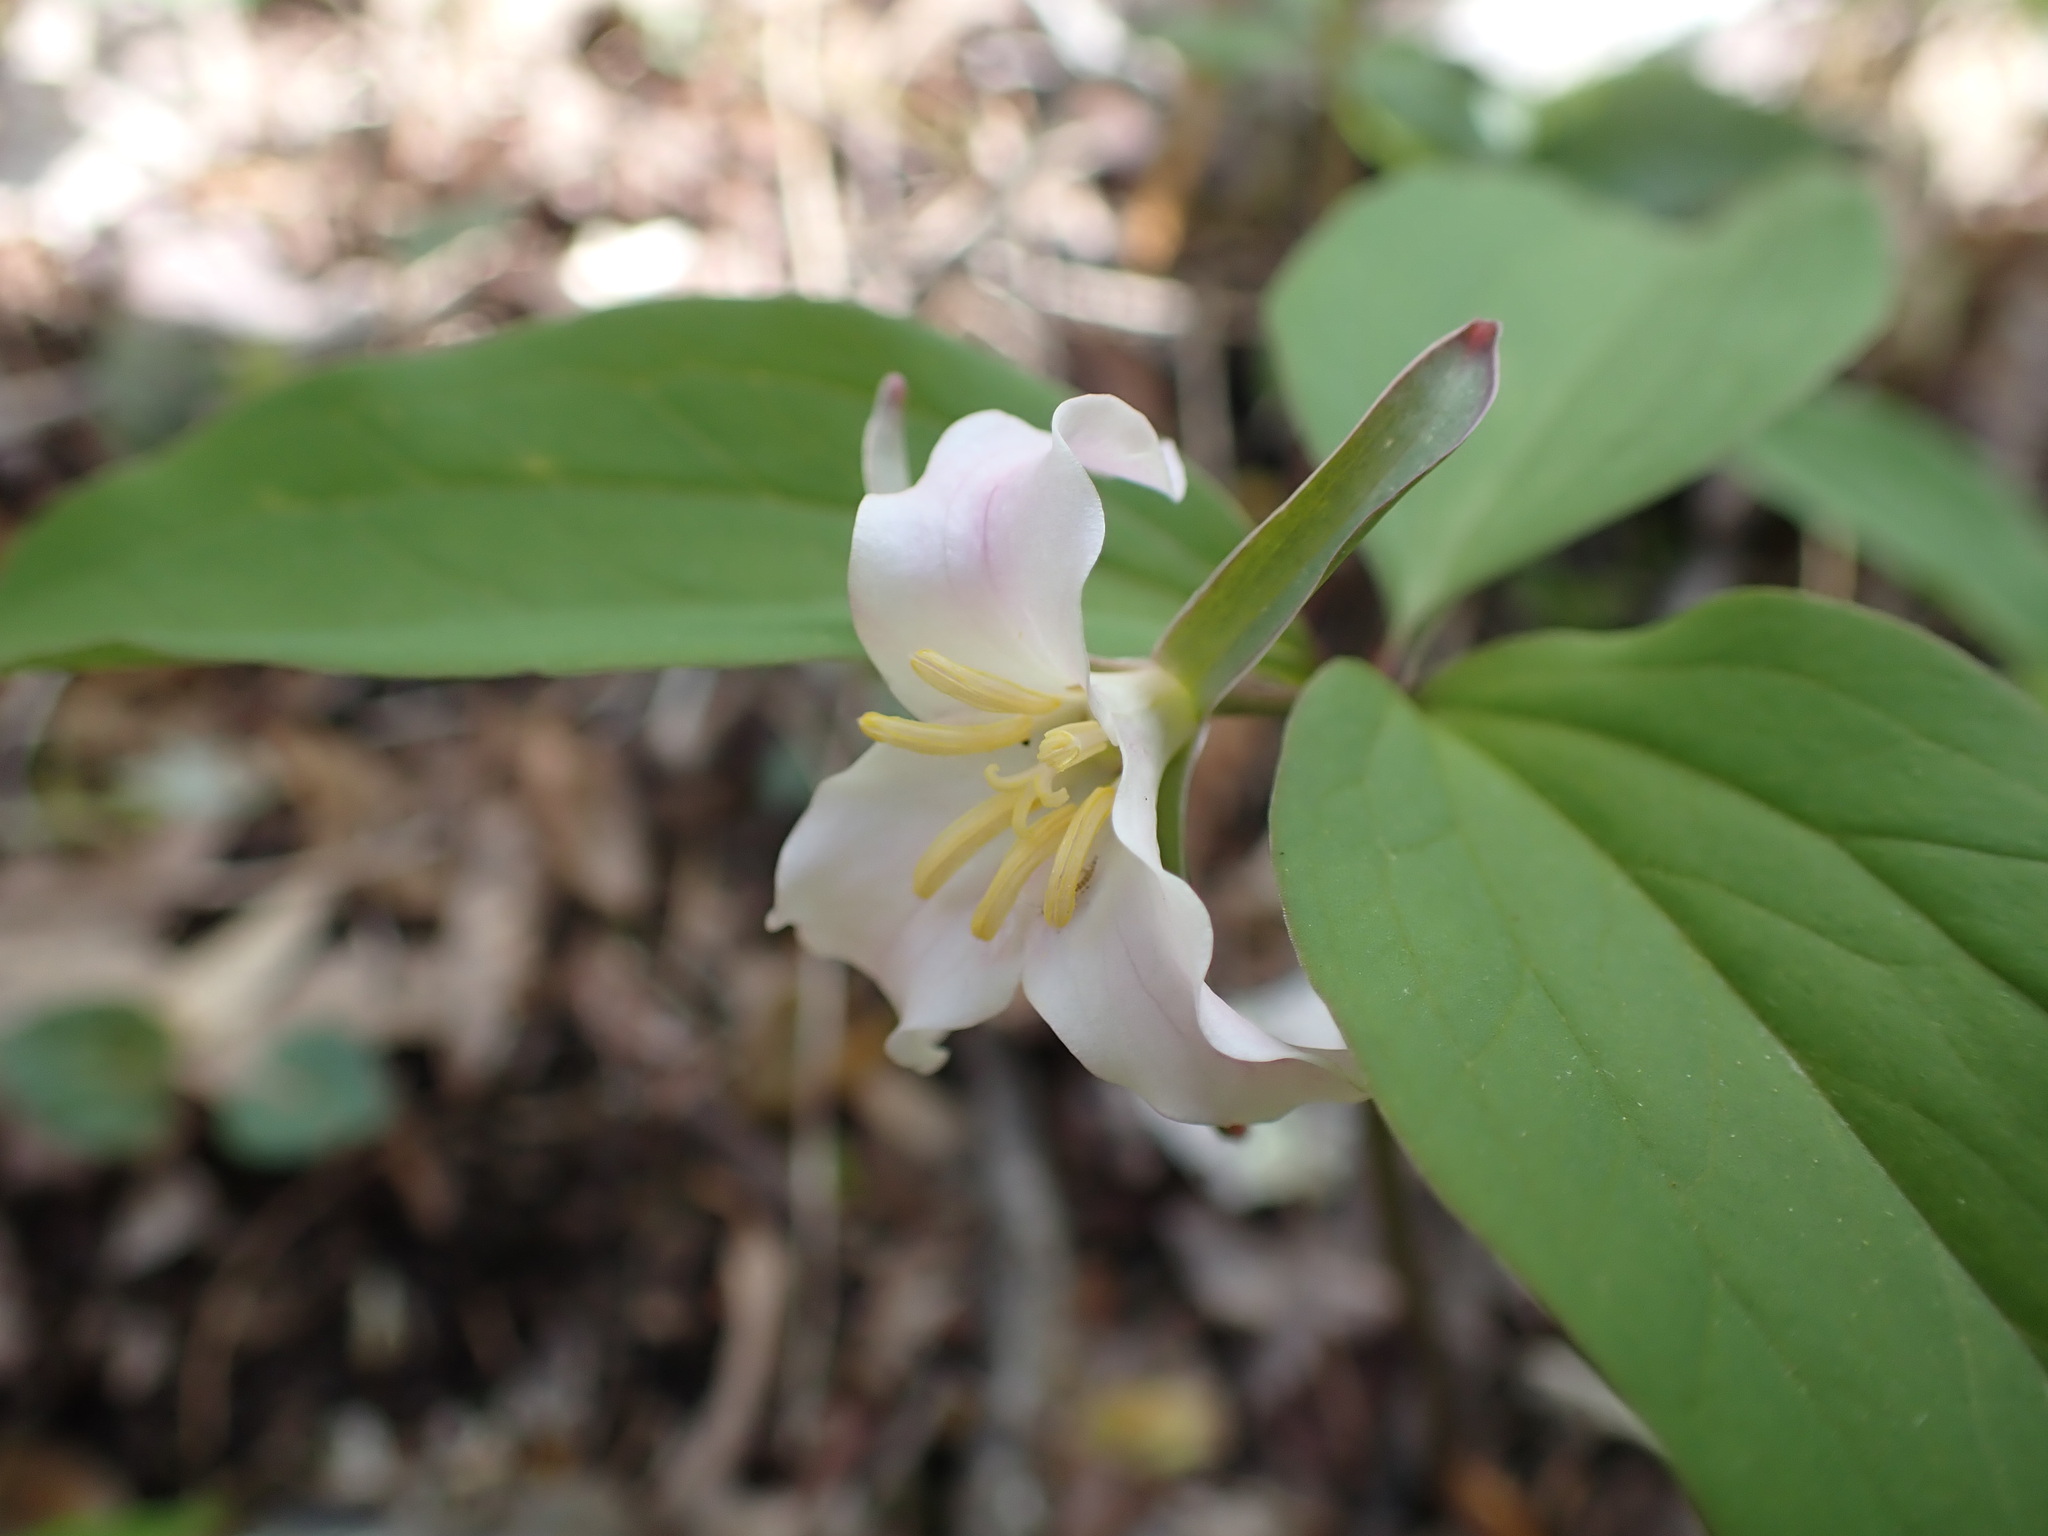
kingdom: Plantae
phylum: Tracheophyta
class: Liliopsida
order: Liliales
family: Melanthiaceae
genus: Trillium
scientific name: Trillium catesbaei
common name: Bashful trillium
